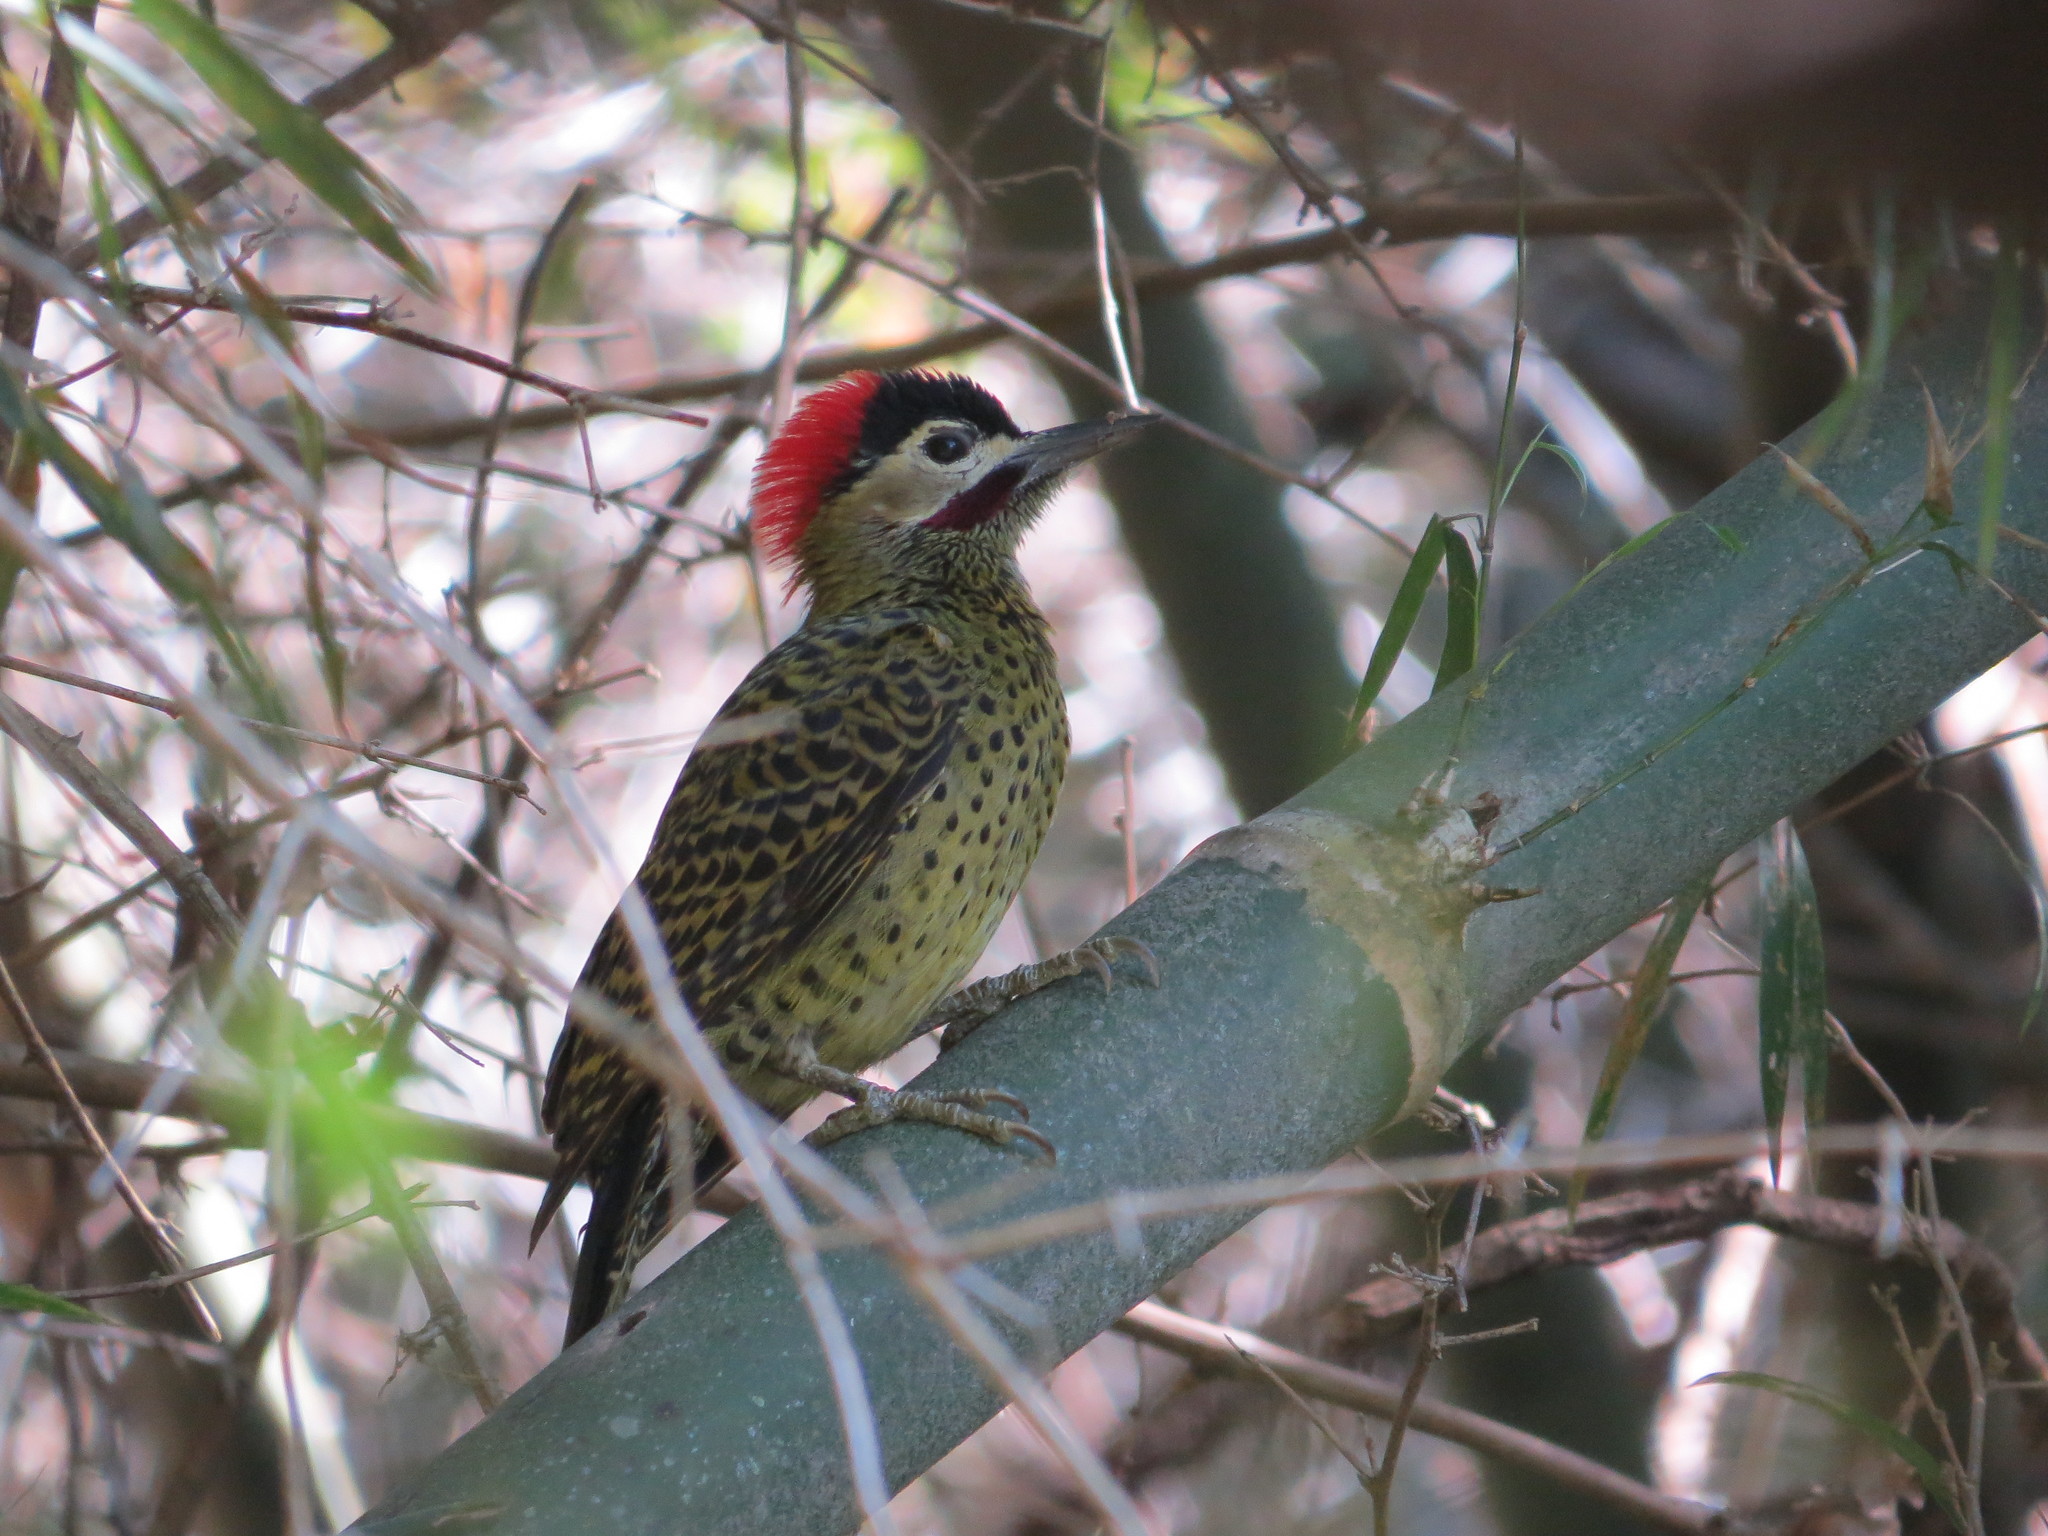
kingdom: Animalia
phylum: Chordata
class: Aves
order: Piciformes
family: Picidae
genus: Colaptes
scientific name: Colaptes melanochloros
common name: Green-barred woodpecker
